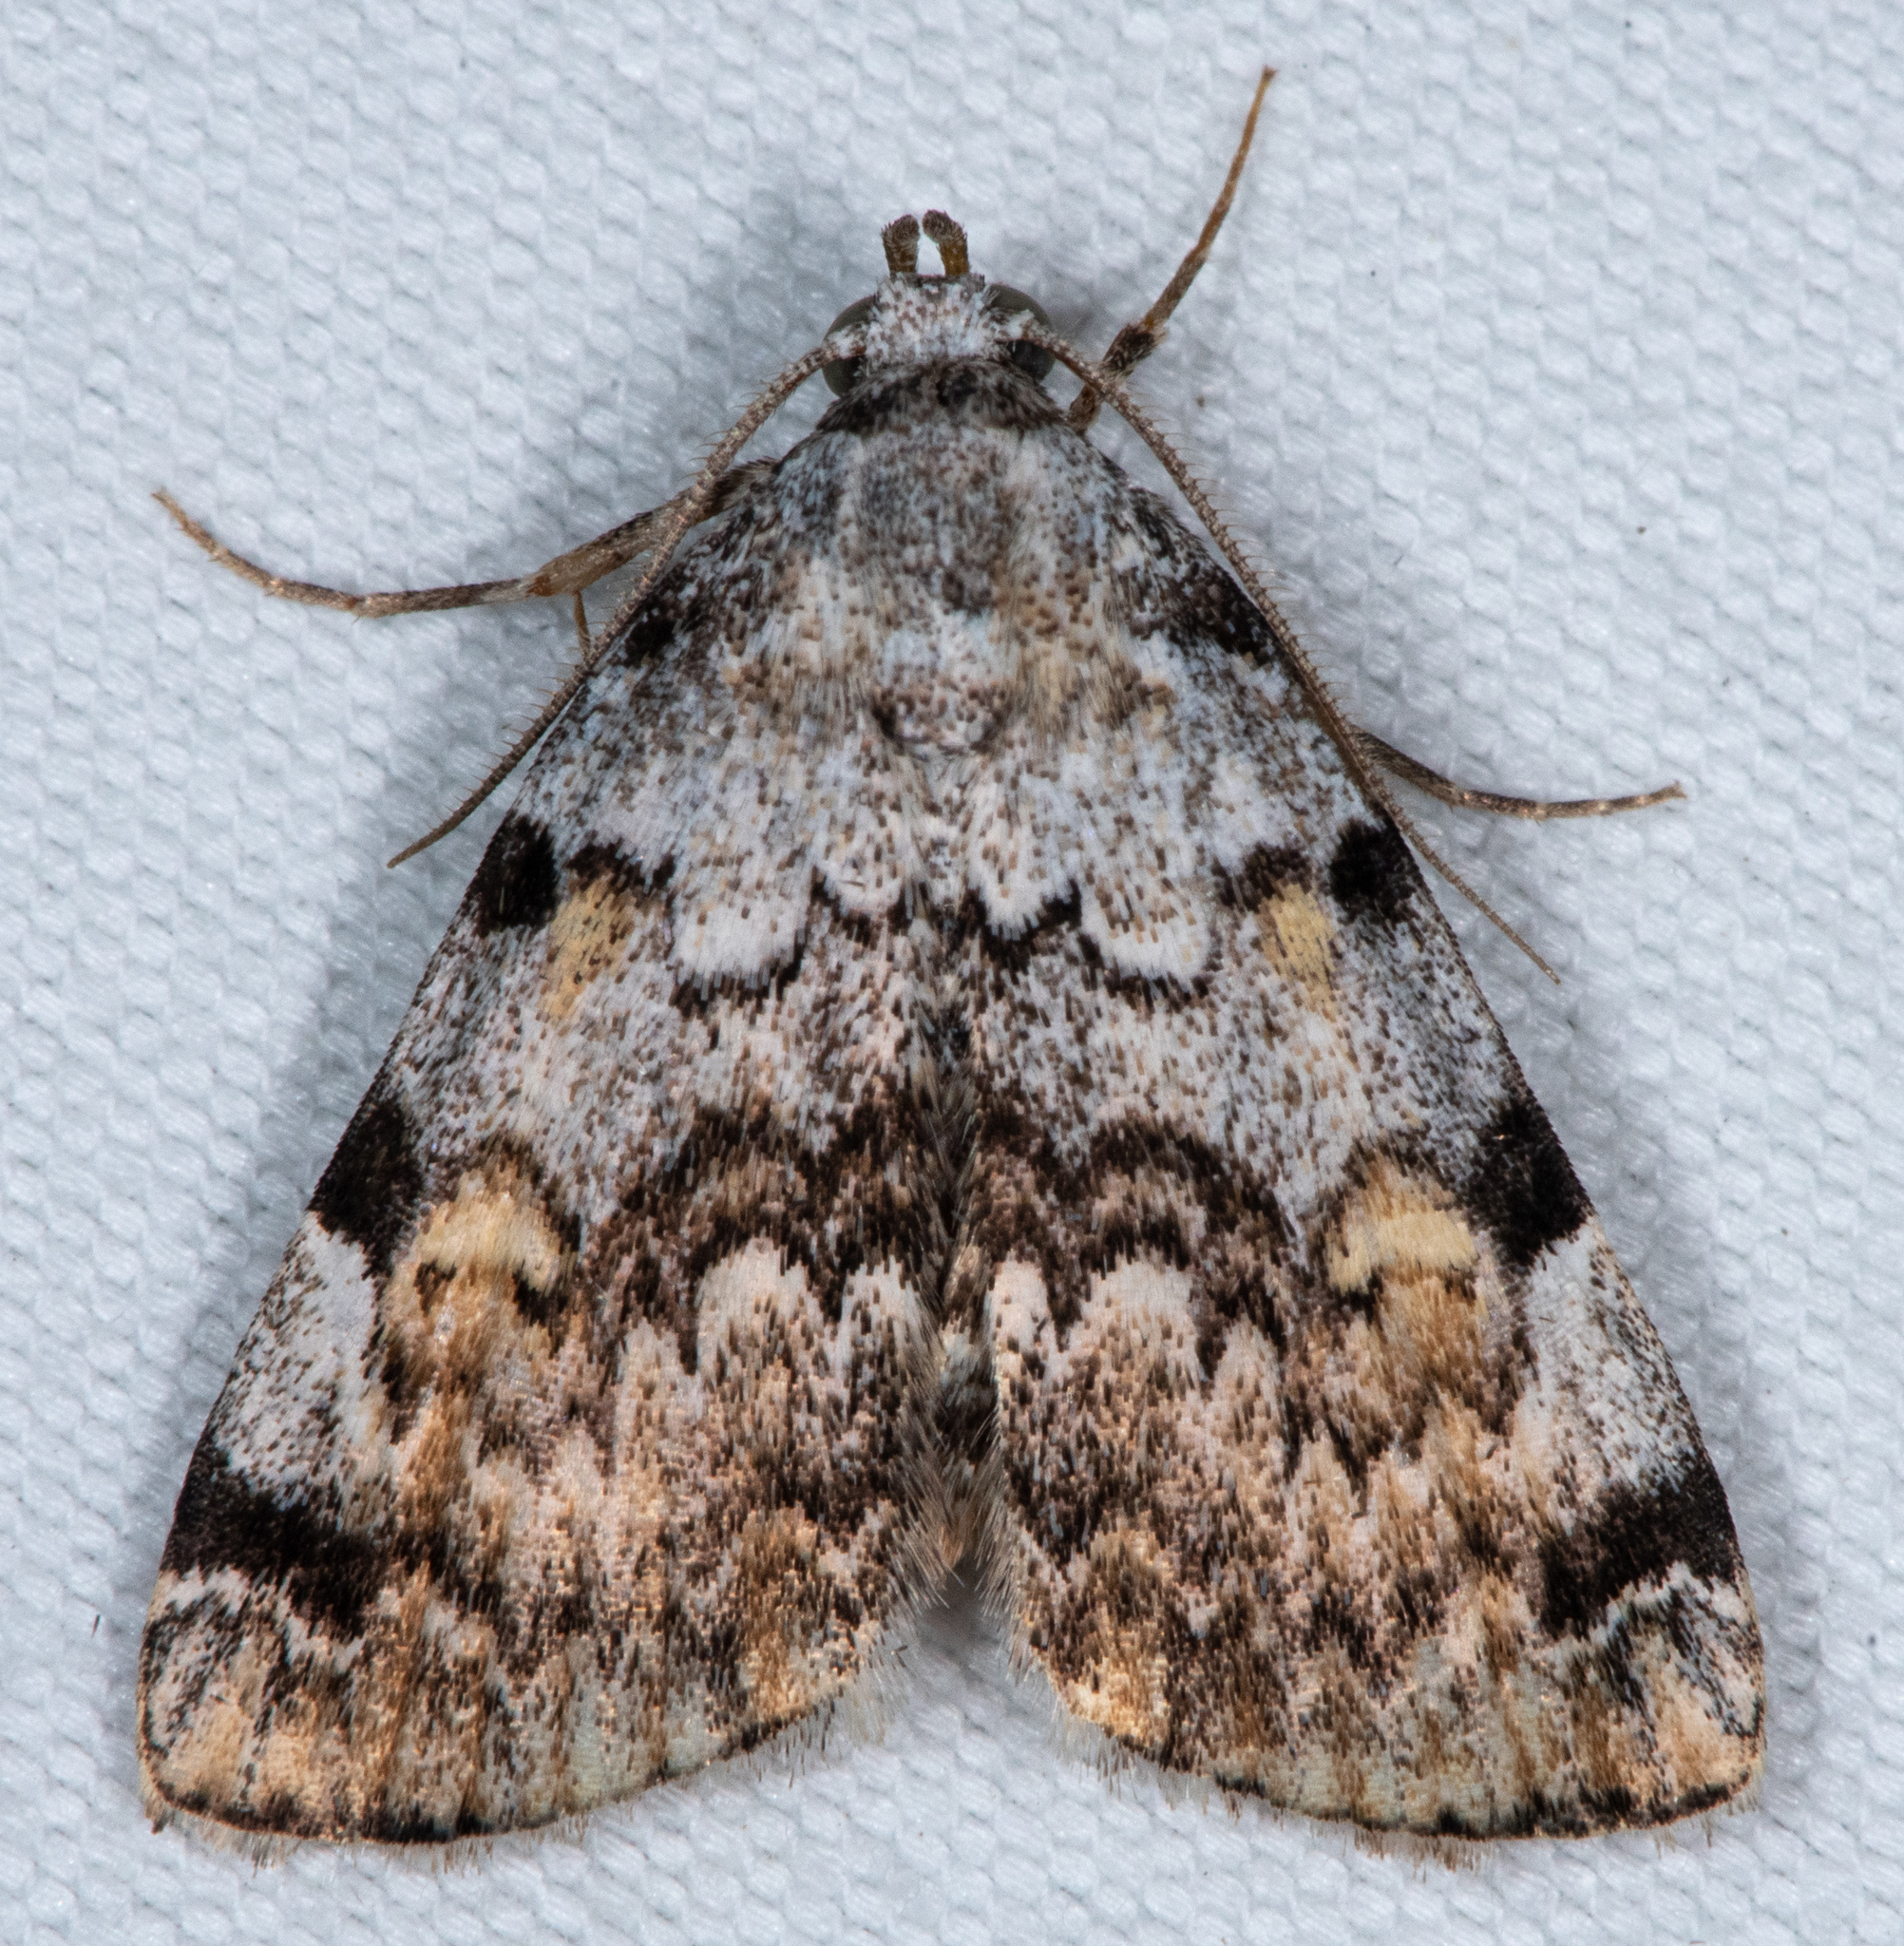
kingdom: Animalia
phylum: Arthropoda
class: Insecta
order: Lepidoptera
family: Erebidae
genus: Idia
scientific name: Idia americalis
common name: American idia moth
